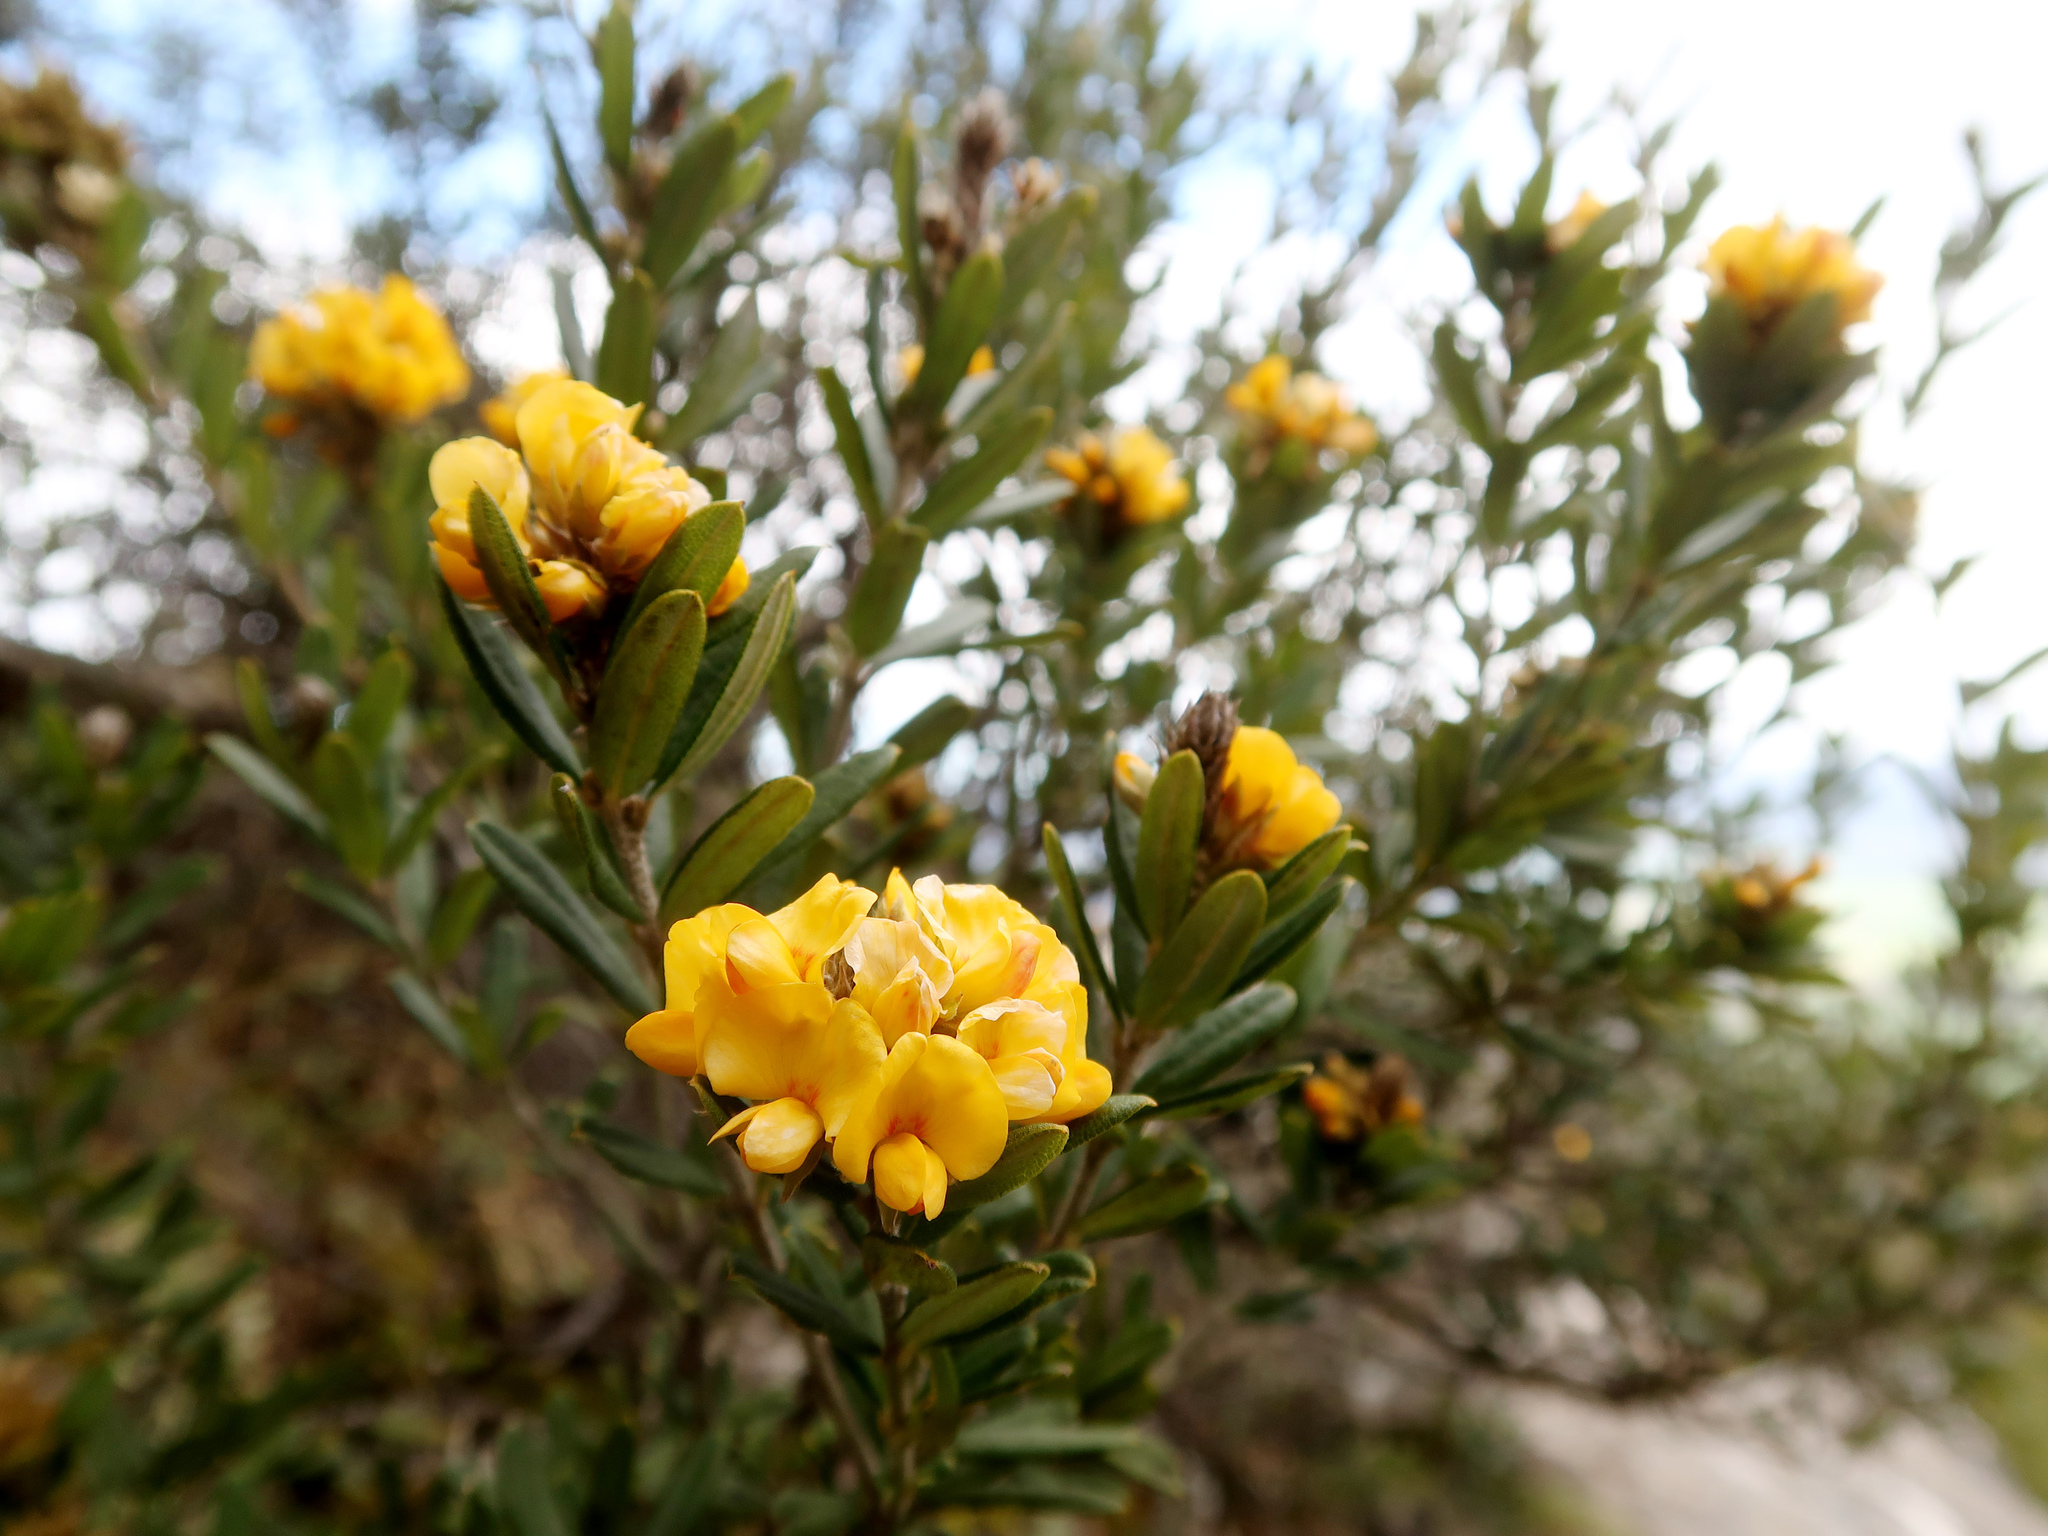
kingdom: Plantae
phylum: Tracheophyta
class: Magnoliopsida
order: Fabales
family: Fabaceae
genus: Oxylobium
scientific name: Oxylobium ellipticum
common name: Golden shaggy-pea
